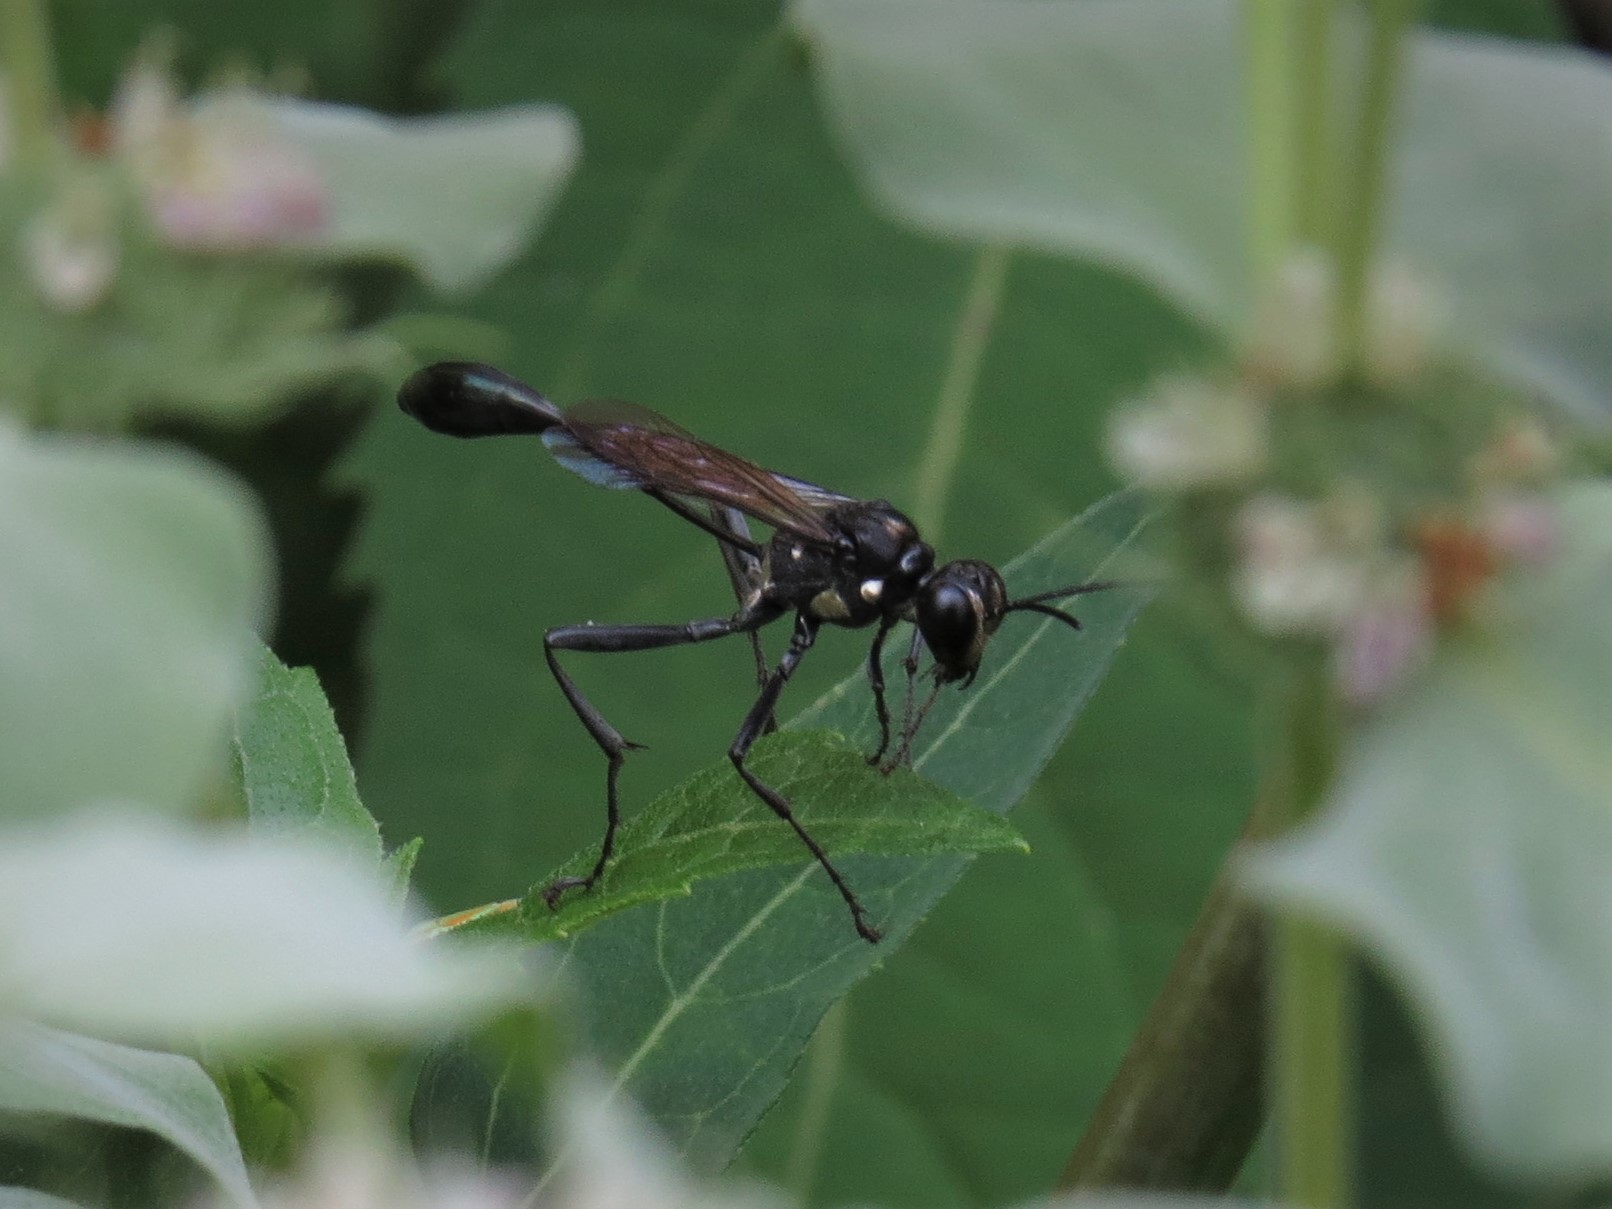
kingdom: Animalia
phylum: Arthropoda
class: Insecta
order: Hymenoptera
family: Sphecidae
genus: Eremnophila
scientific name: Eremnophila aureonotata
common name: Gold-marked thread-waisted wasp
